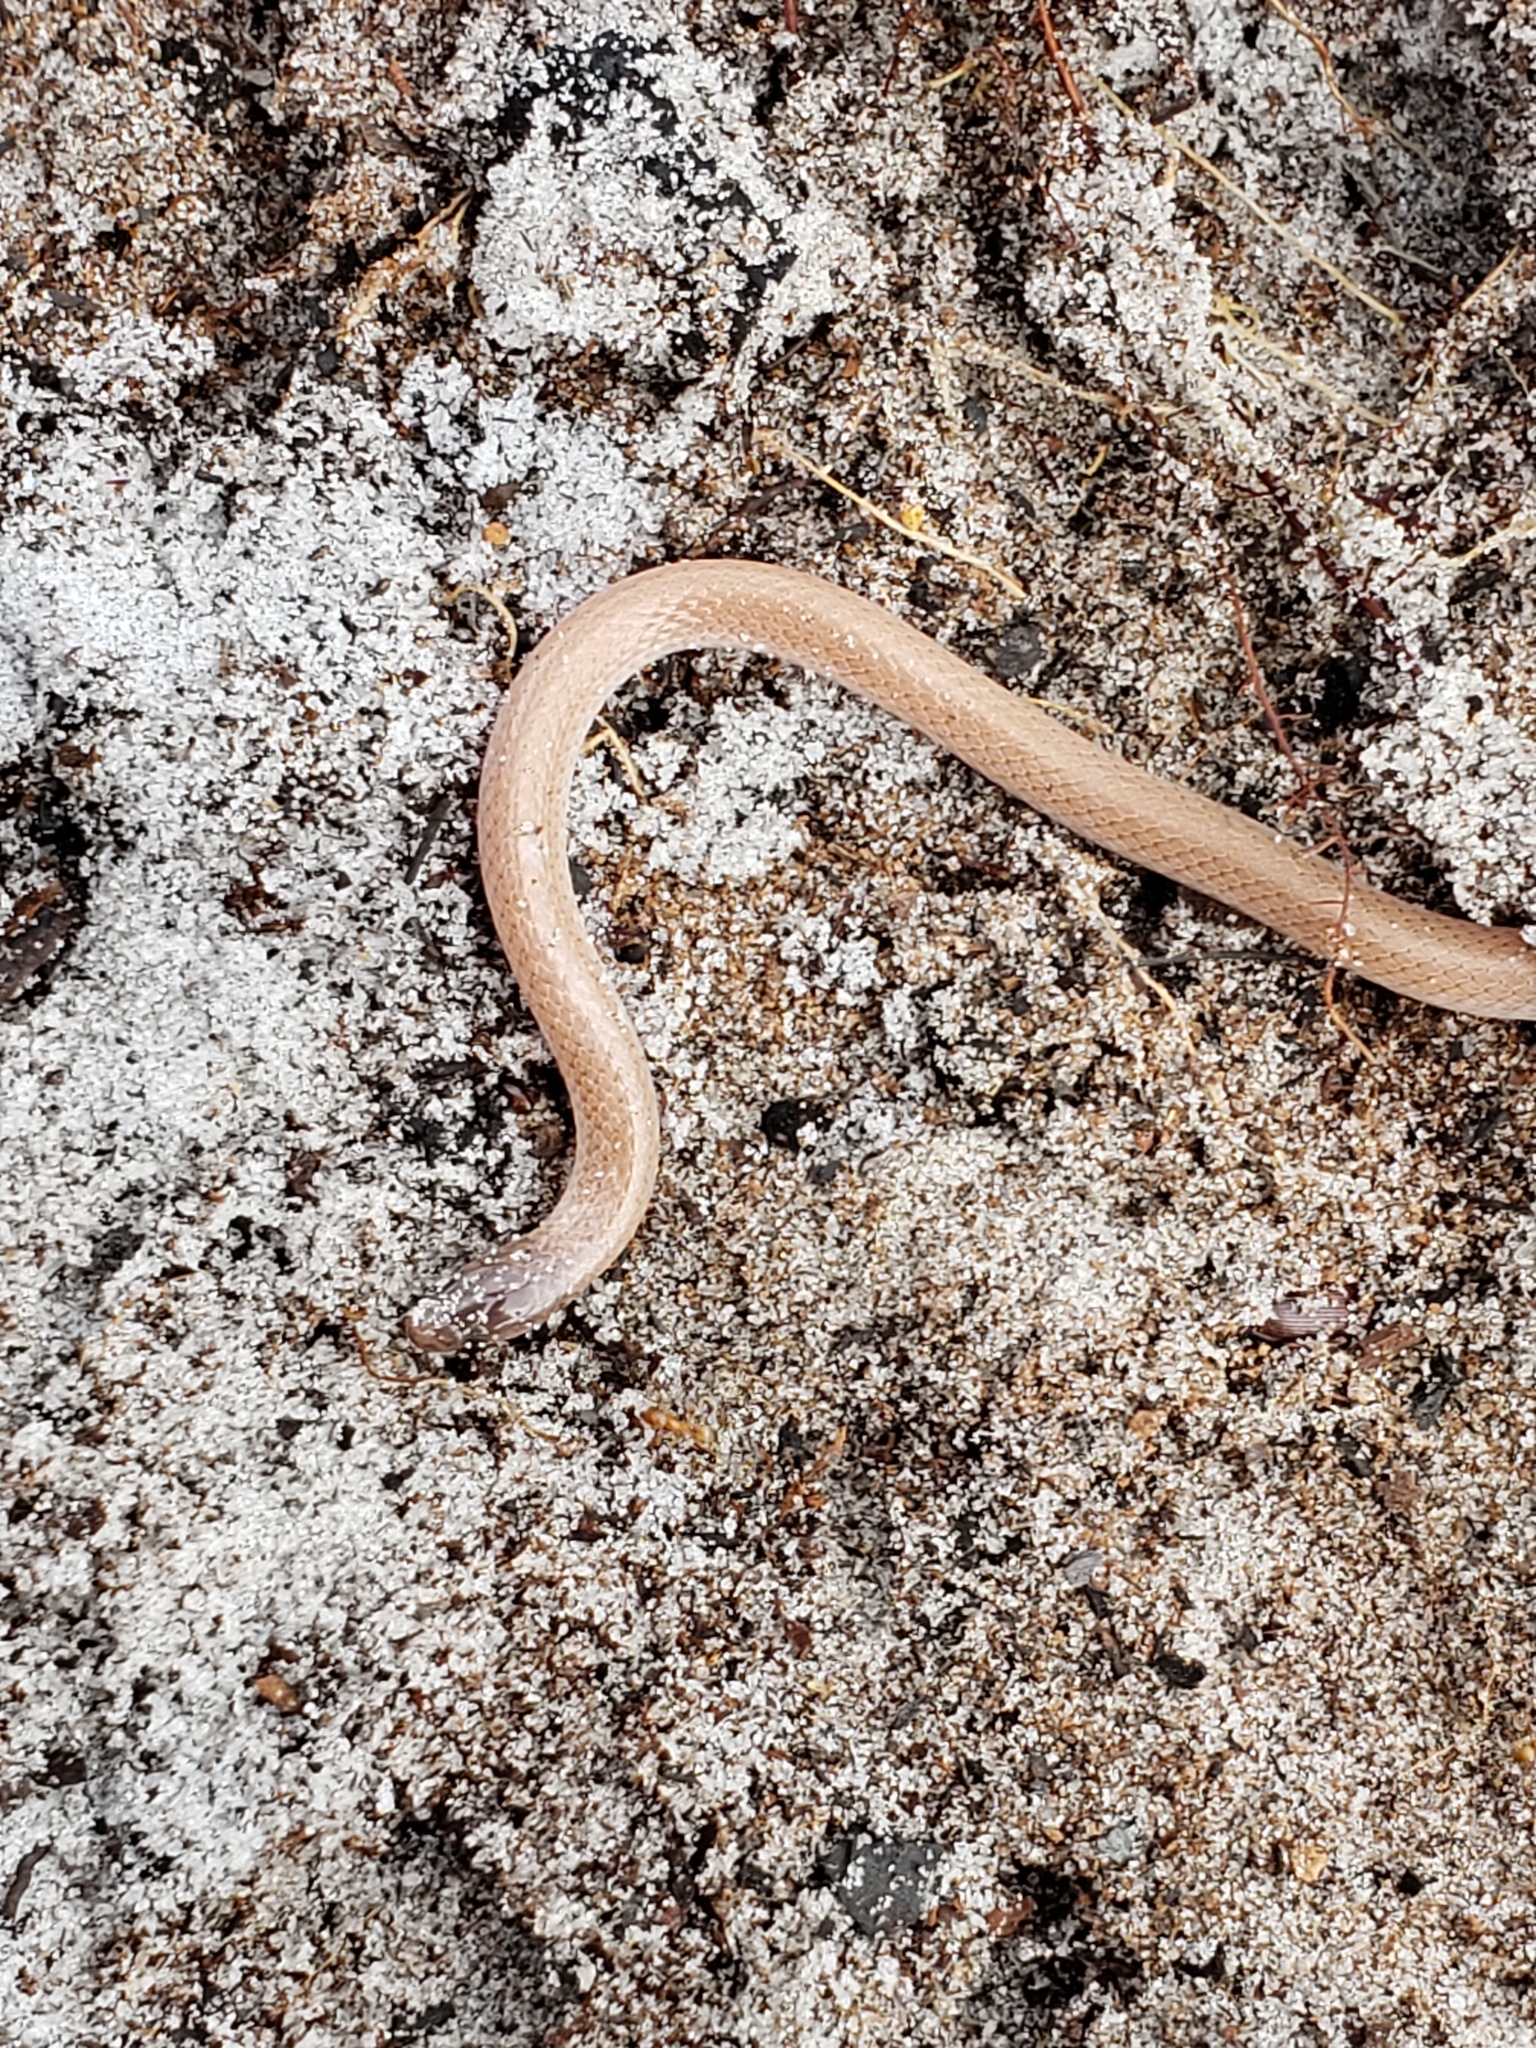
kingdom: Animalia
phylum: Chordata
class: Squamata
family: Colubridae
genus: Tantilla
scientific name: Tantilla relicta
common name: Florida crowned snake
